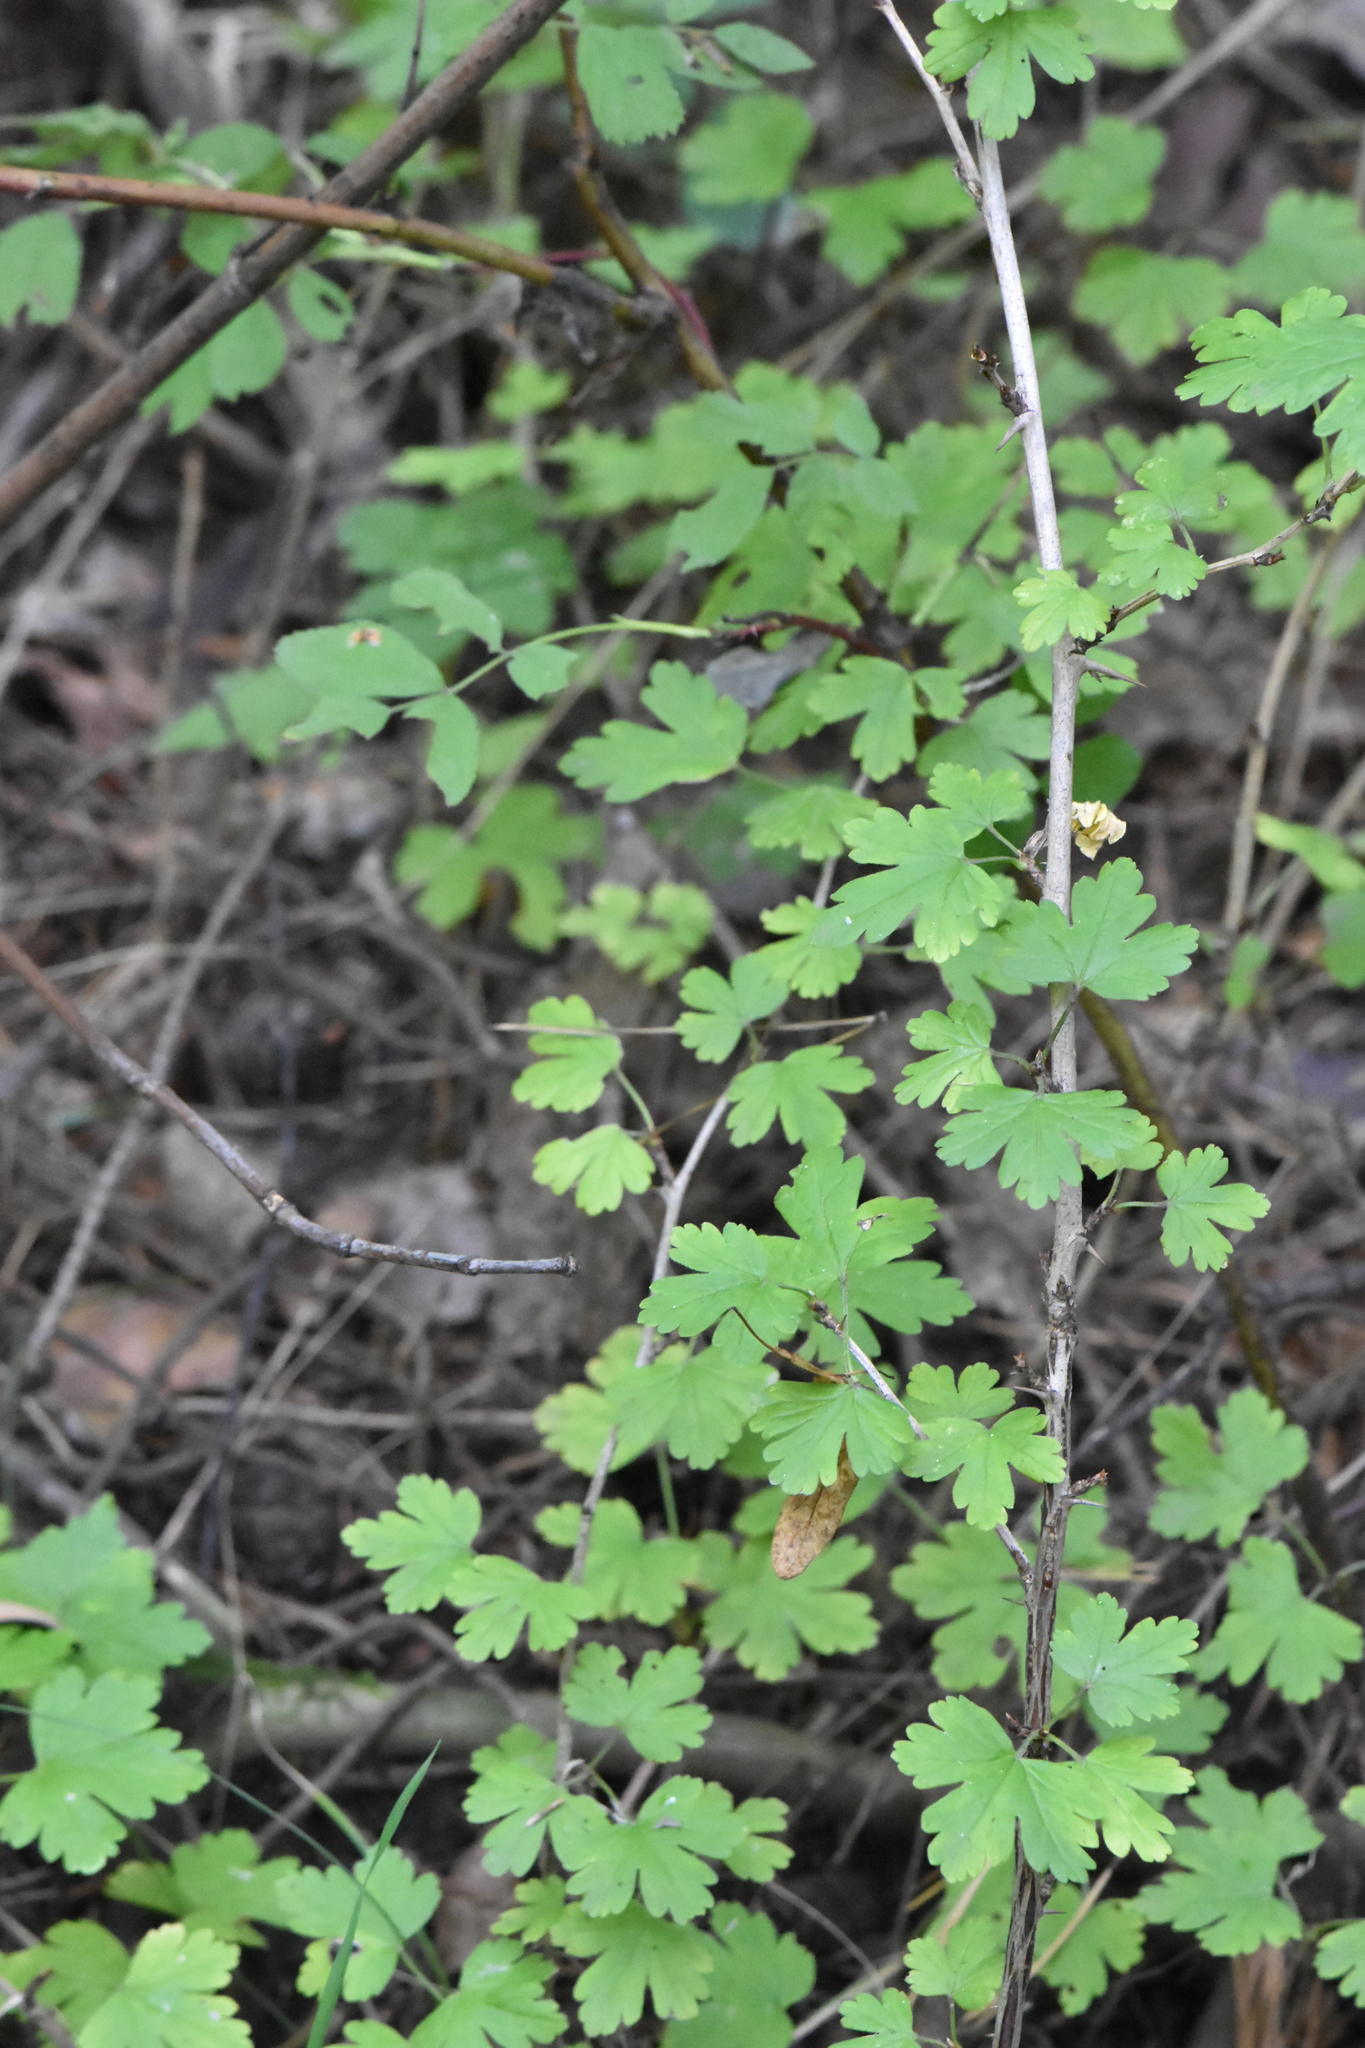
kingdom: Plantae
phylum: Tracheophyta
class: Magnoliopsida
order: Saxifragales
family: Grossulariaceae
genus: Ribes
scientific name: Ribes uva-crispa
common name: Gooseberry
